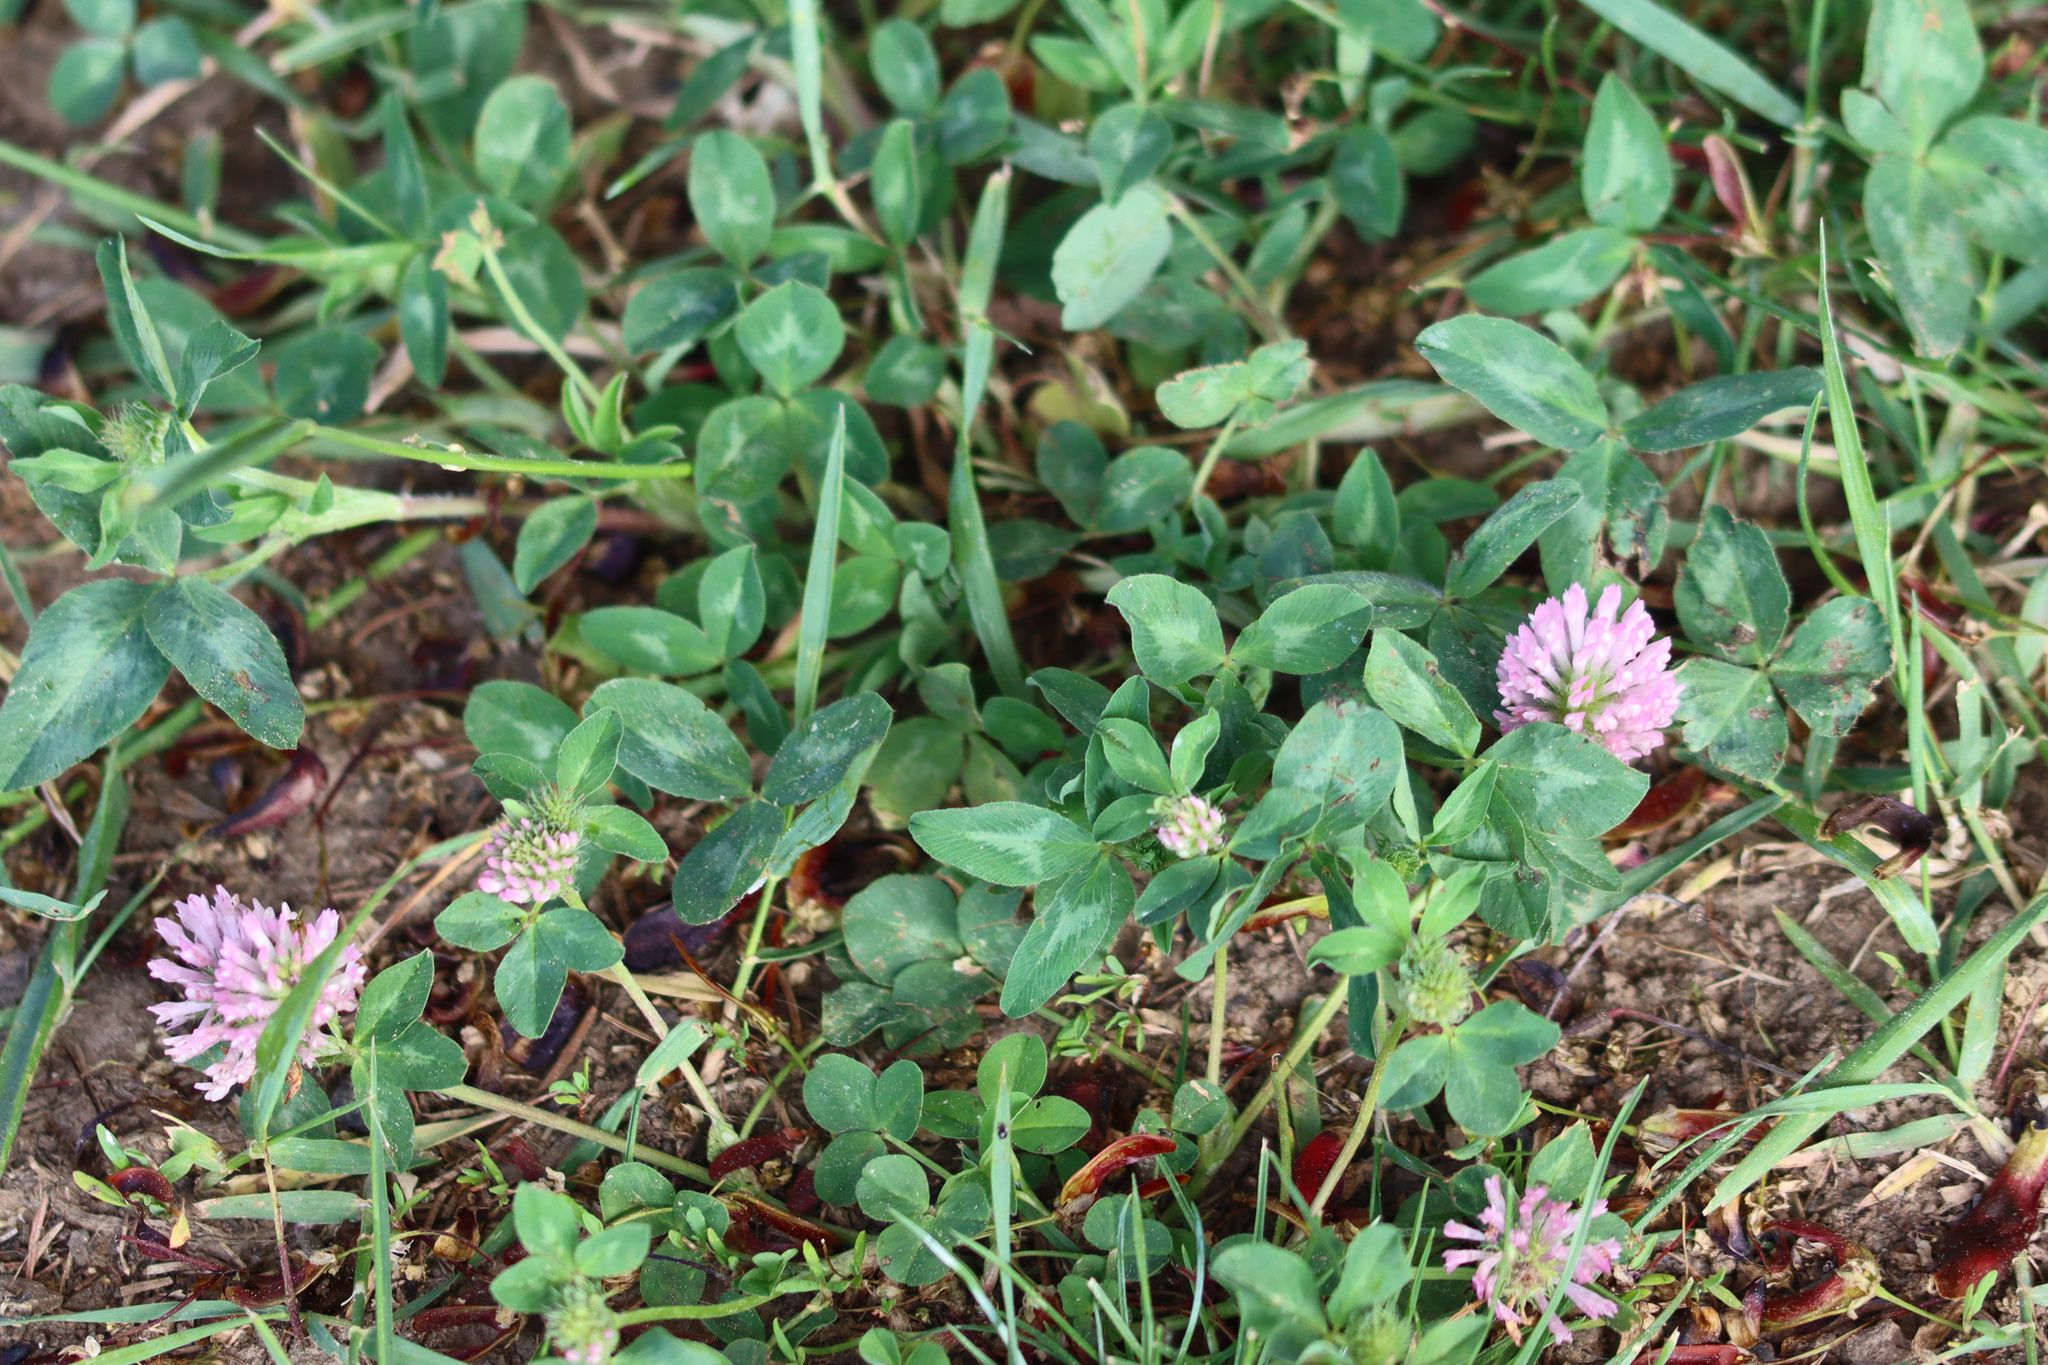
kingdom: Plantae
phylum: Tracheophyta
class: Magnoliopsida
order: Fabales
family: Fabaceae
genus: Trifolium
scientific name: Trifolium pratense
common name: Red clover
